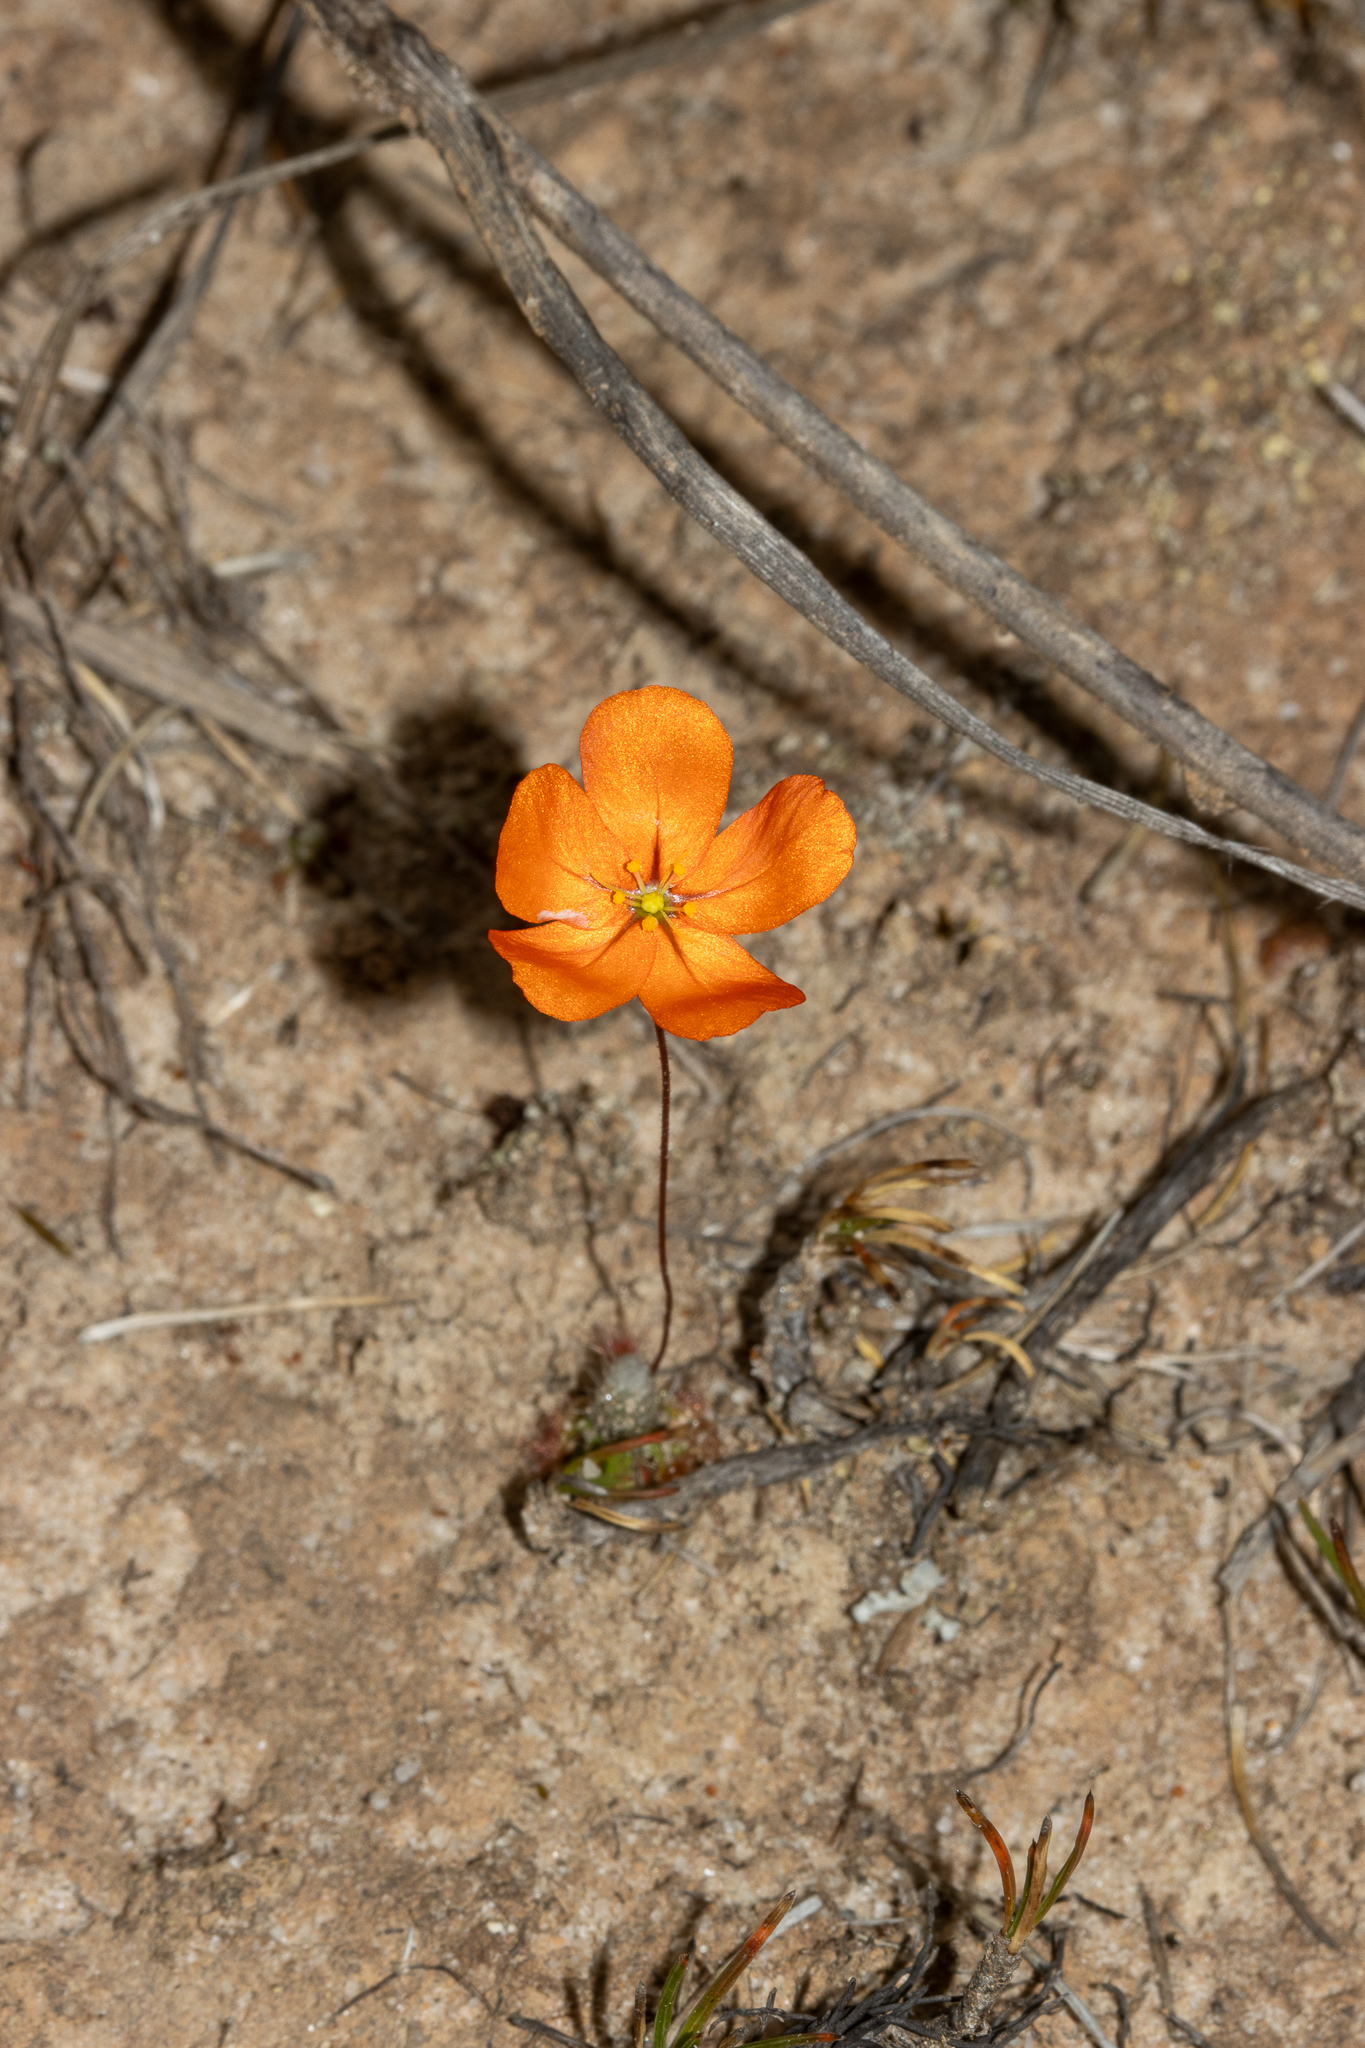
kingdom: Plantae
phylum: Tracheophyta
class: Magnoliopsida
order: Caryophyllales
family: Droseraceae
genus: Drosera
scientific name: Drosera echinoblastus
